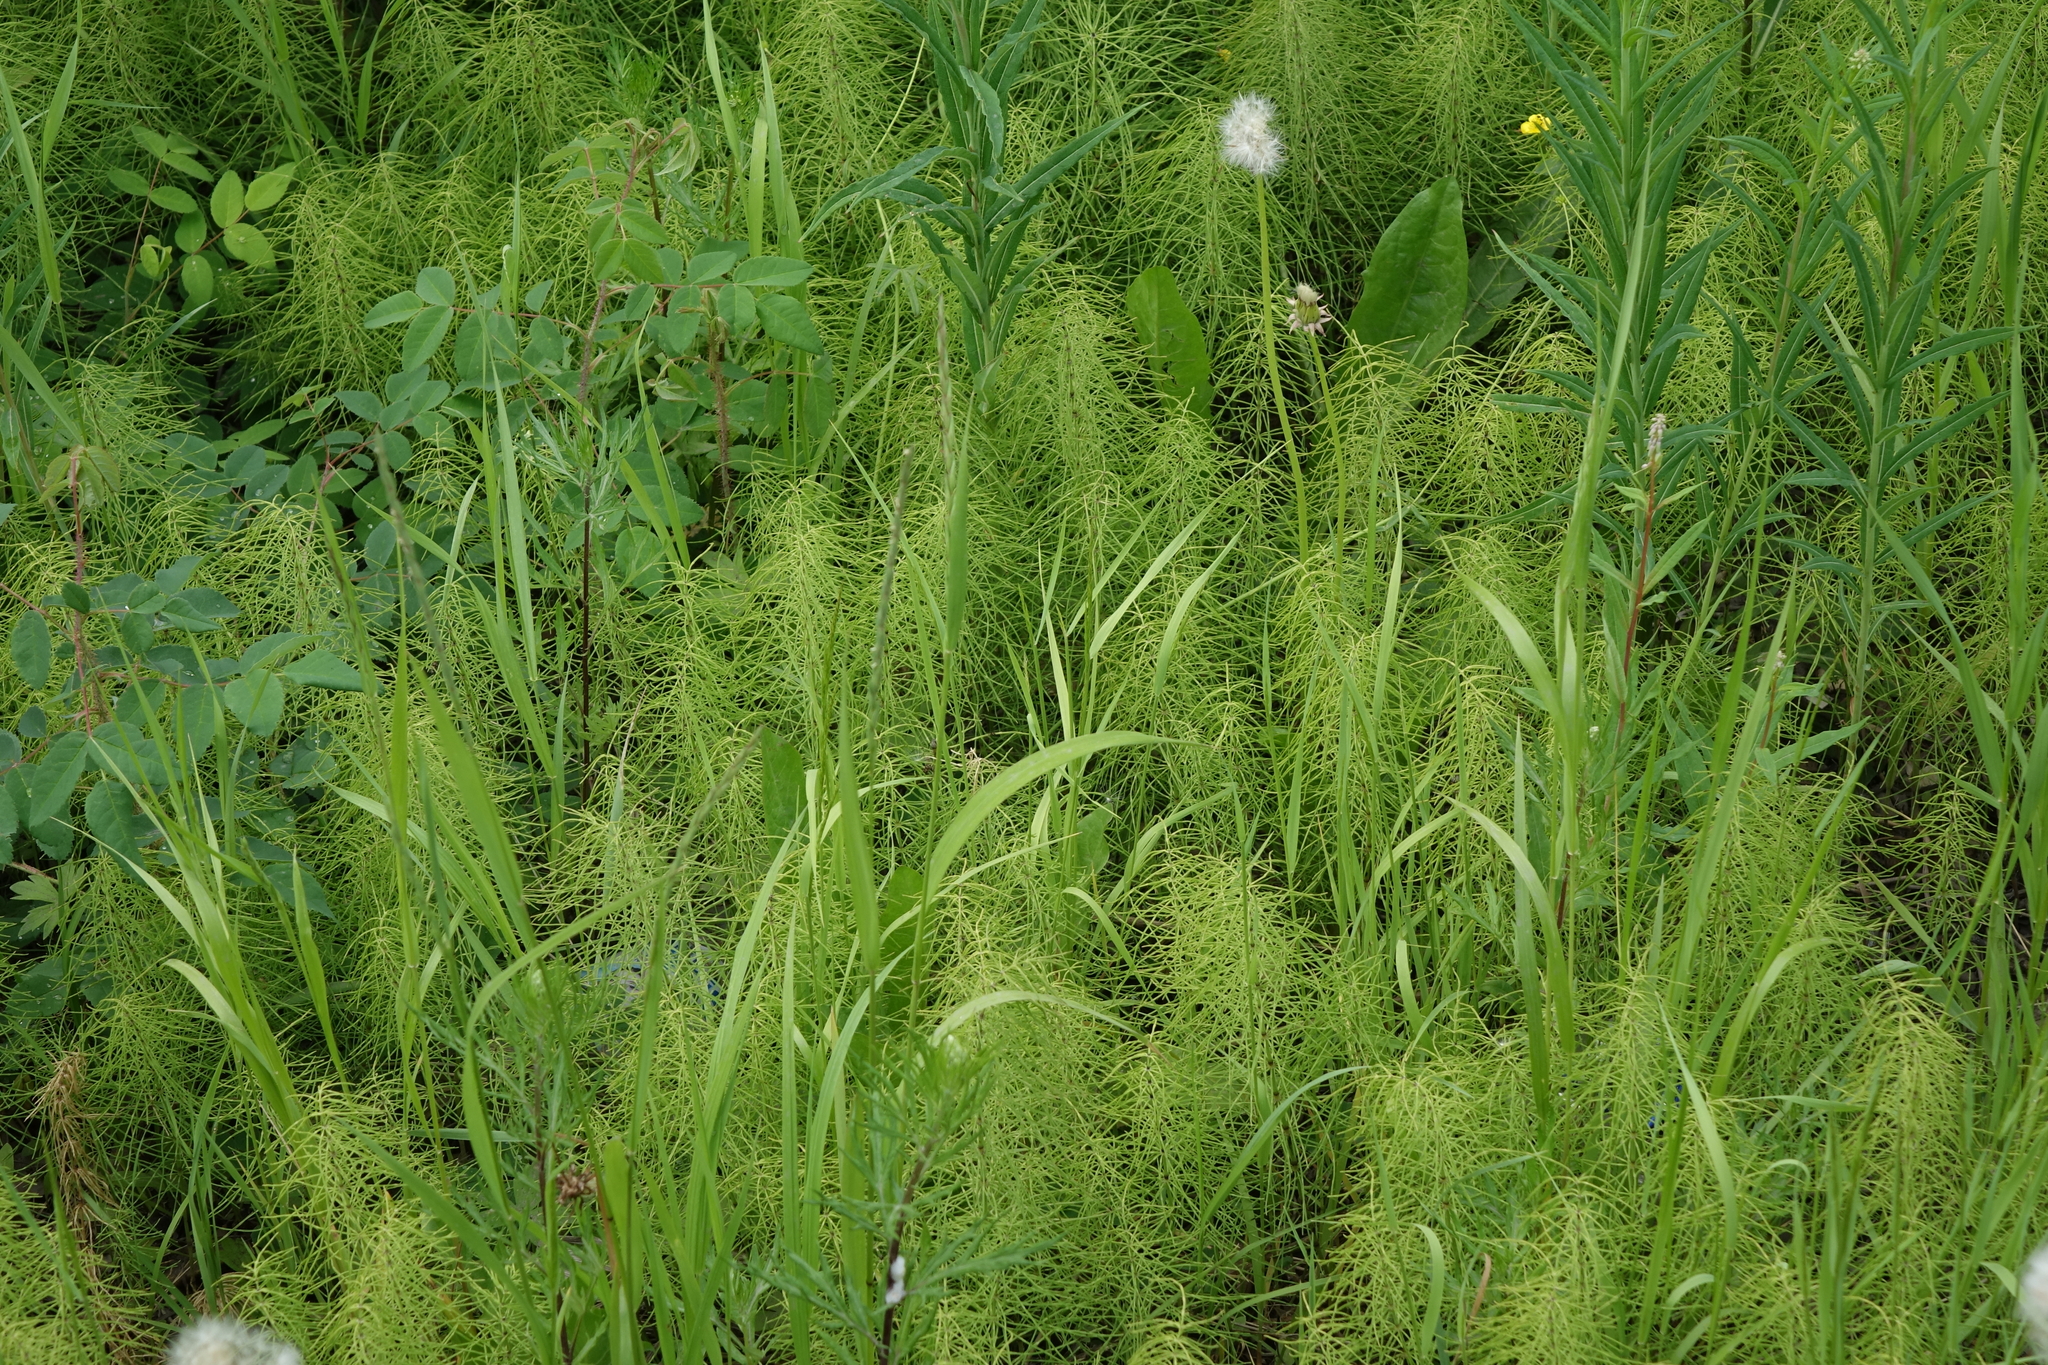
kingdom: Plantae
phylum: Tracheophyta
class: Polypodiopsida
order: Equisetales
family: Equisetaceae
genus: Equisetum
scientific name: Equisetum pratense
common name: Meadow horsetail
